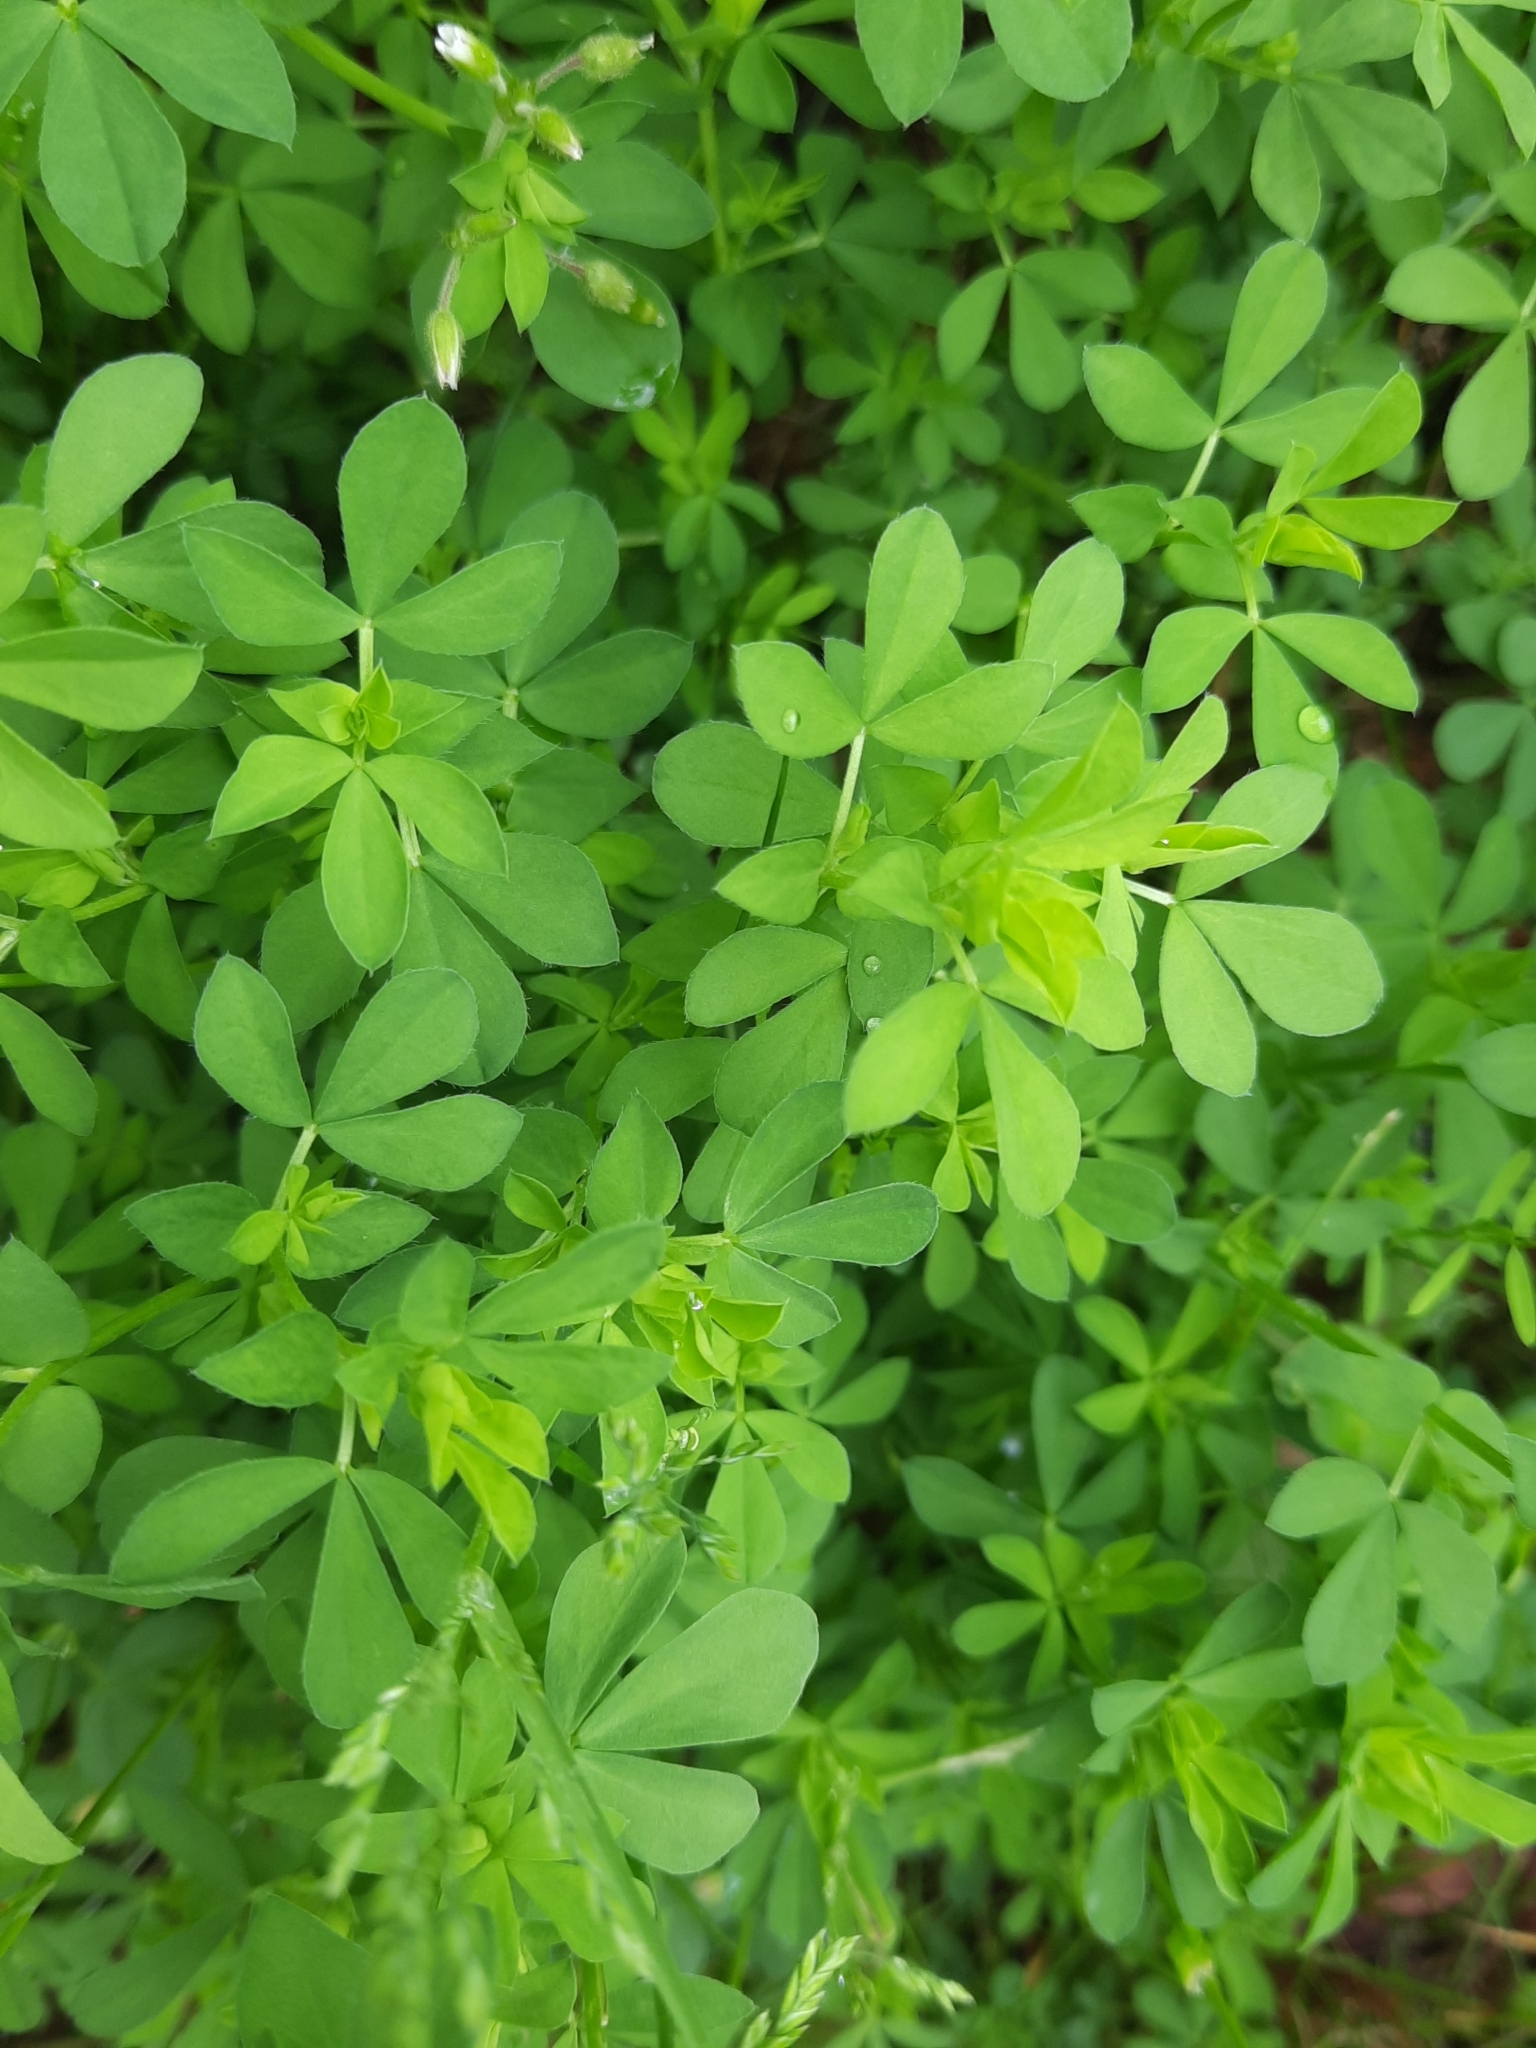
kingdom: Plantae
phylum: Tracheophyta
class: Magnoliopsida
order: Fabales
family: Fabaceae
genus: Lotus
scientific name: Lotus corniculatus
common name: Common bird's-foot-trefoil
